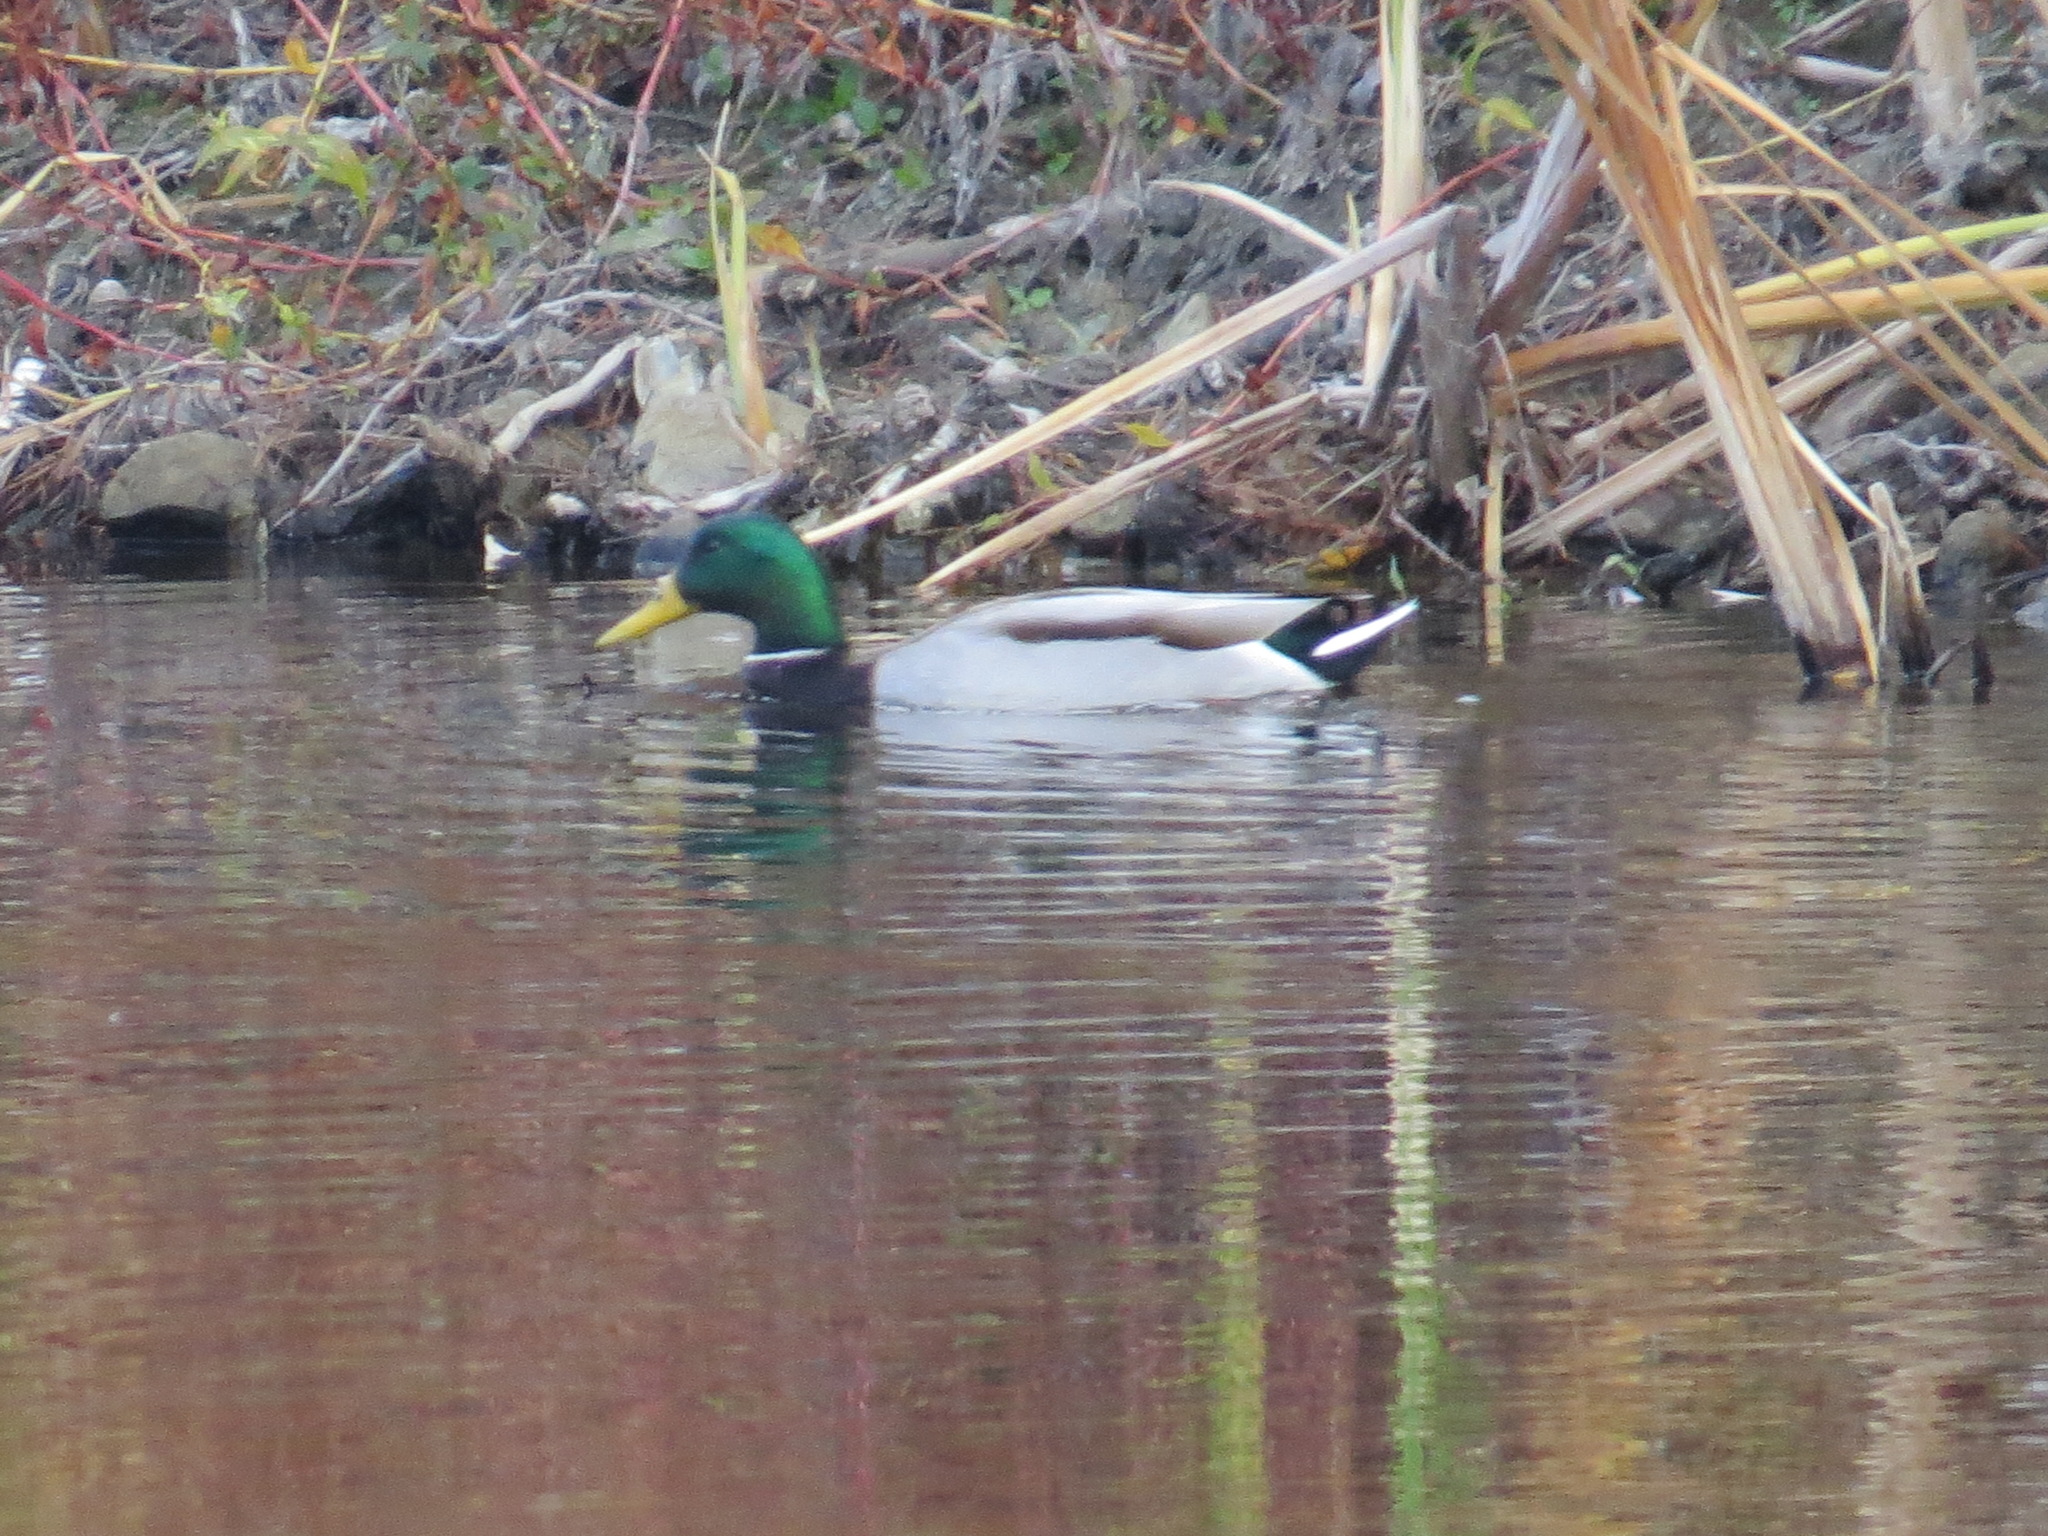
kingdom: Animalia
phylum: Chordata
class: Aves
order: Anseriformes
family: Anatidae
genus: Anas
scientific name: Anas platyrhynchos
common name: Mallard
